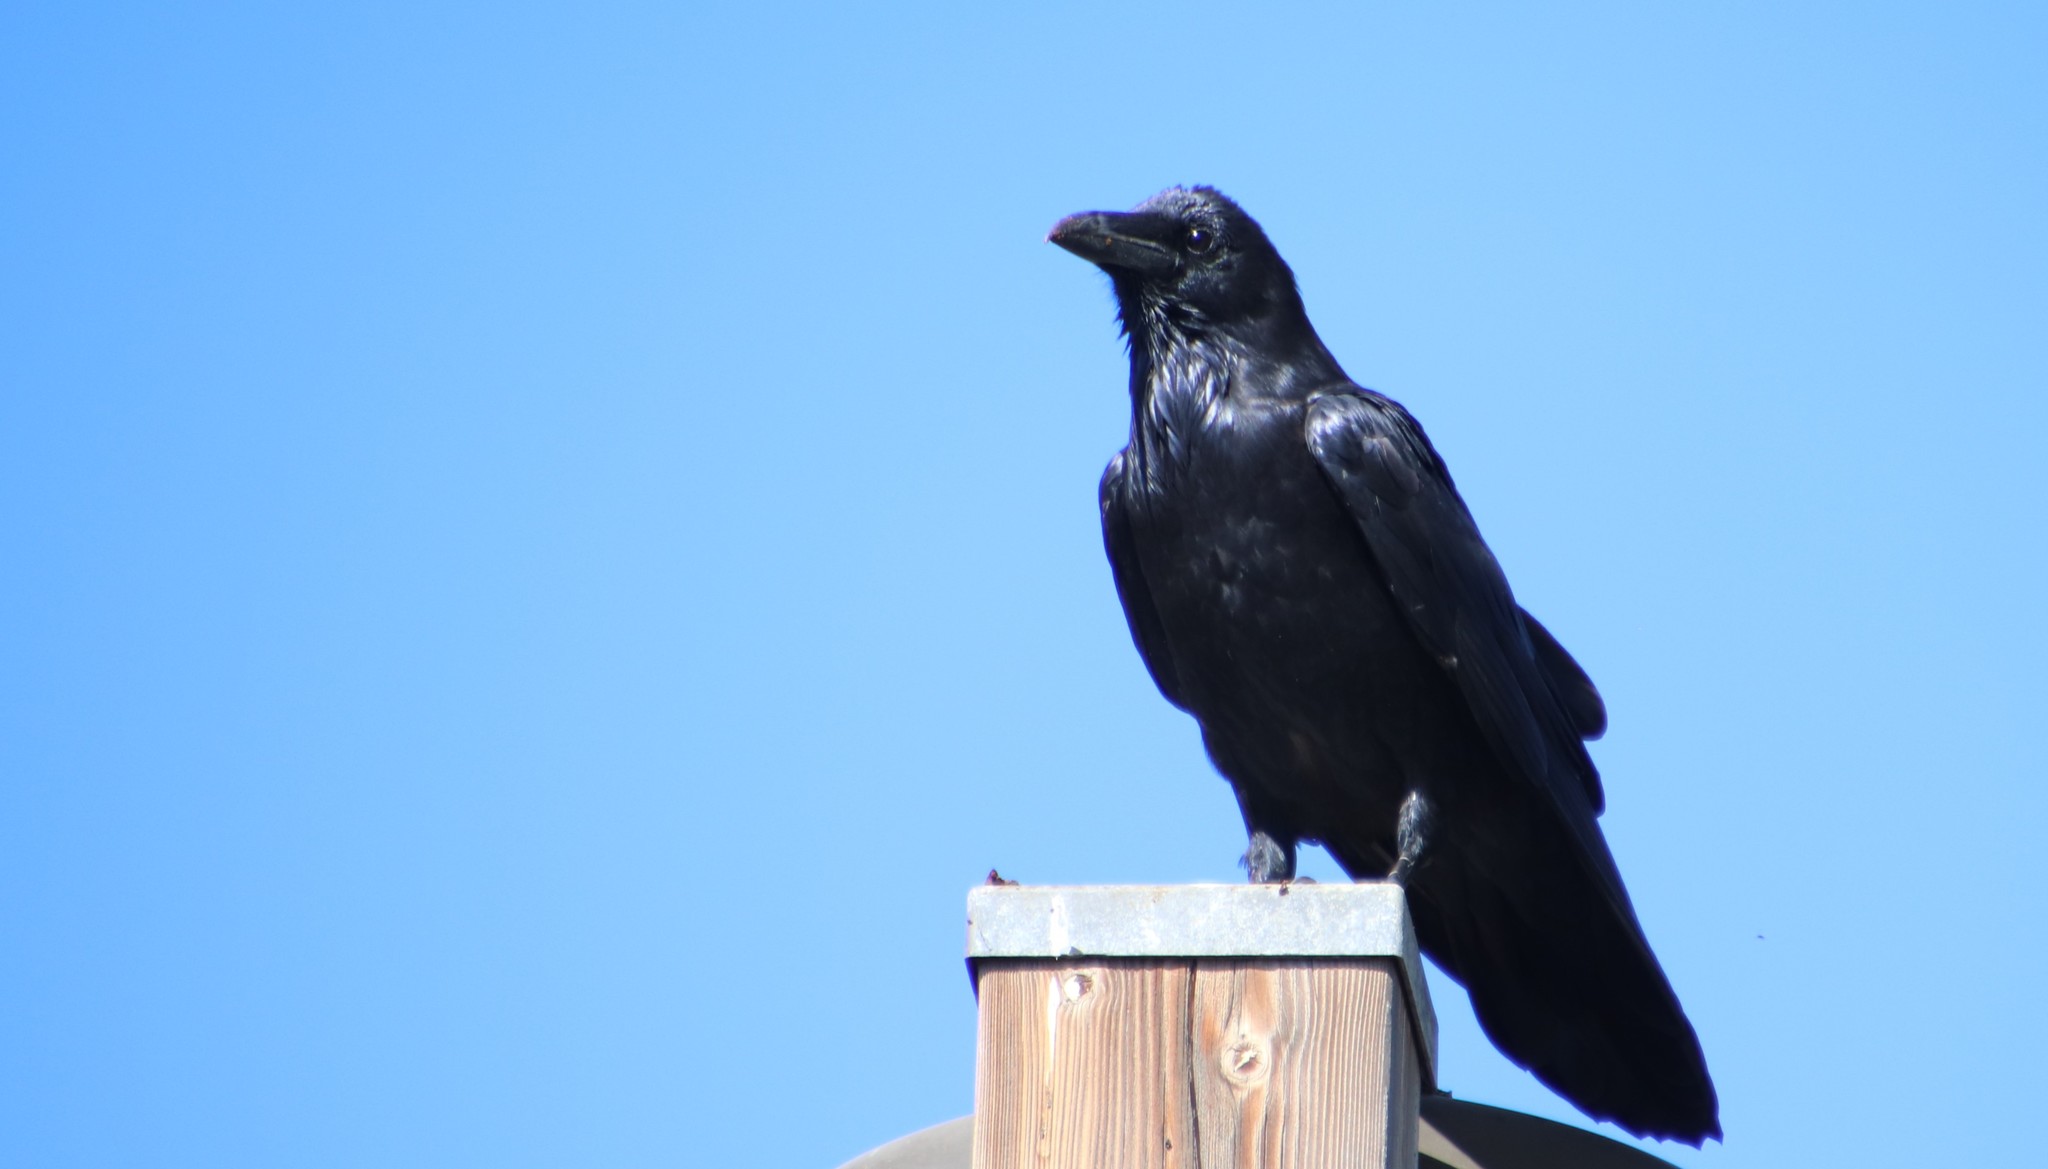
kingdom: Animalia
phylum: Chordata
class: Aves
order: Passeriformes
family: Corvidae
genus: Corvus
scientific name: Corvus corax
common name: Common raven
